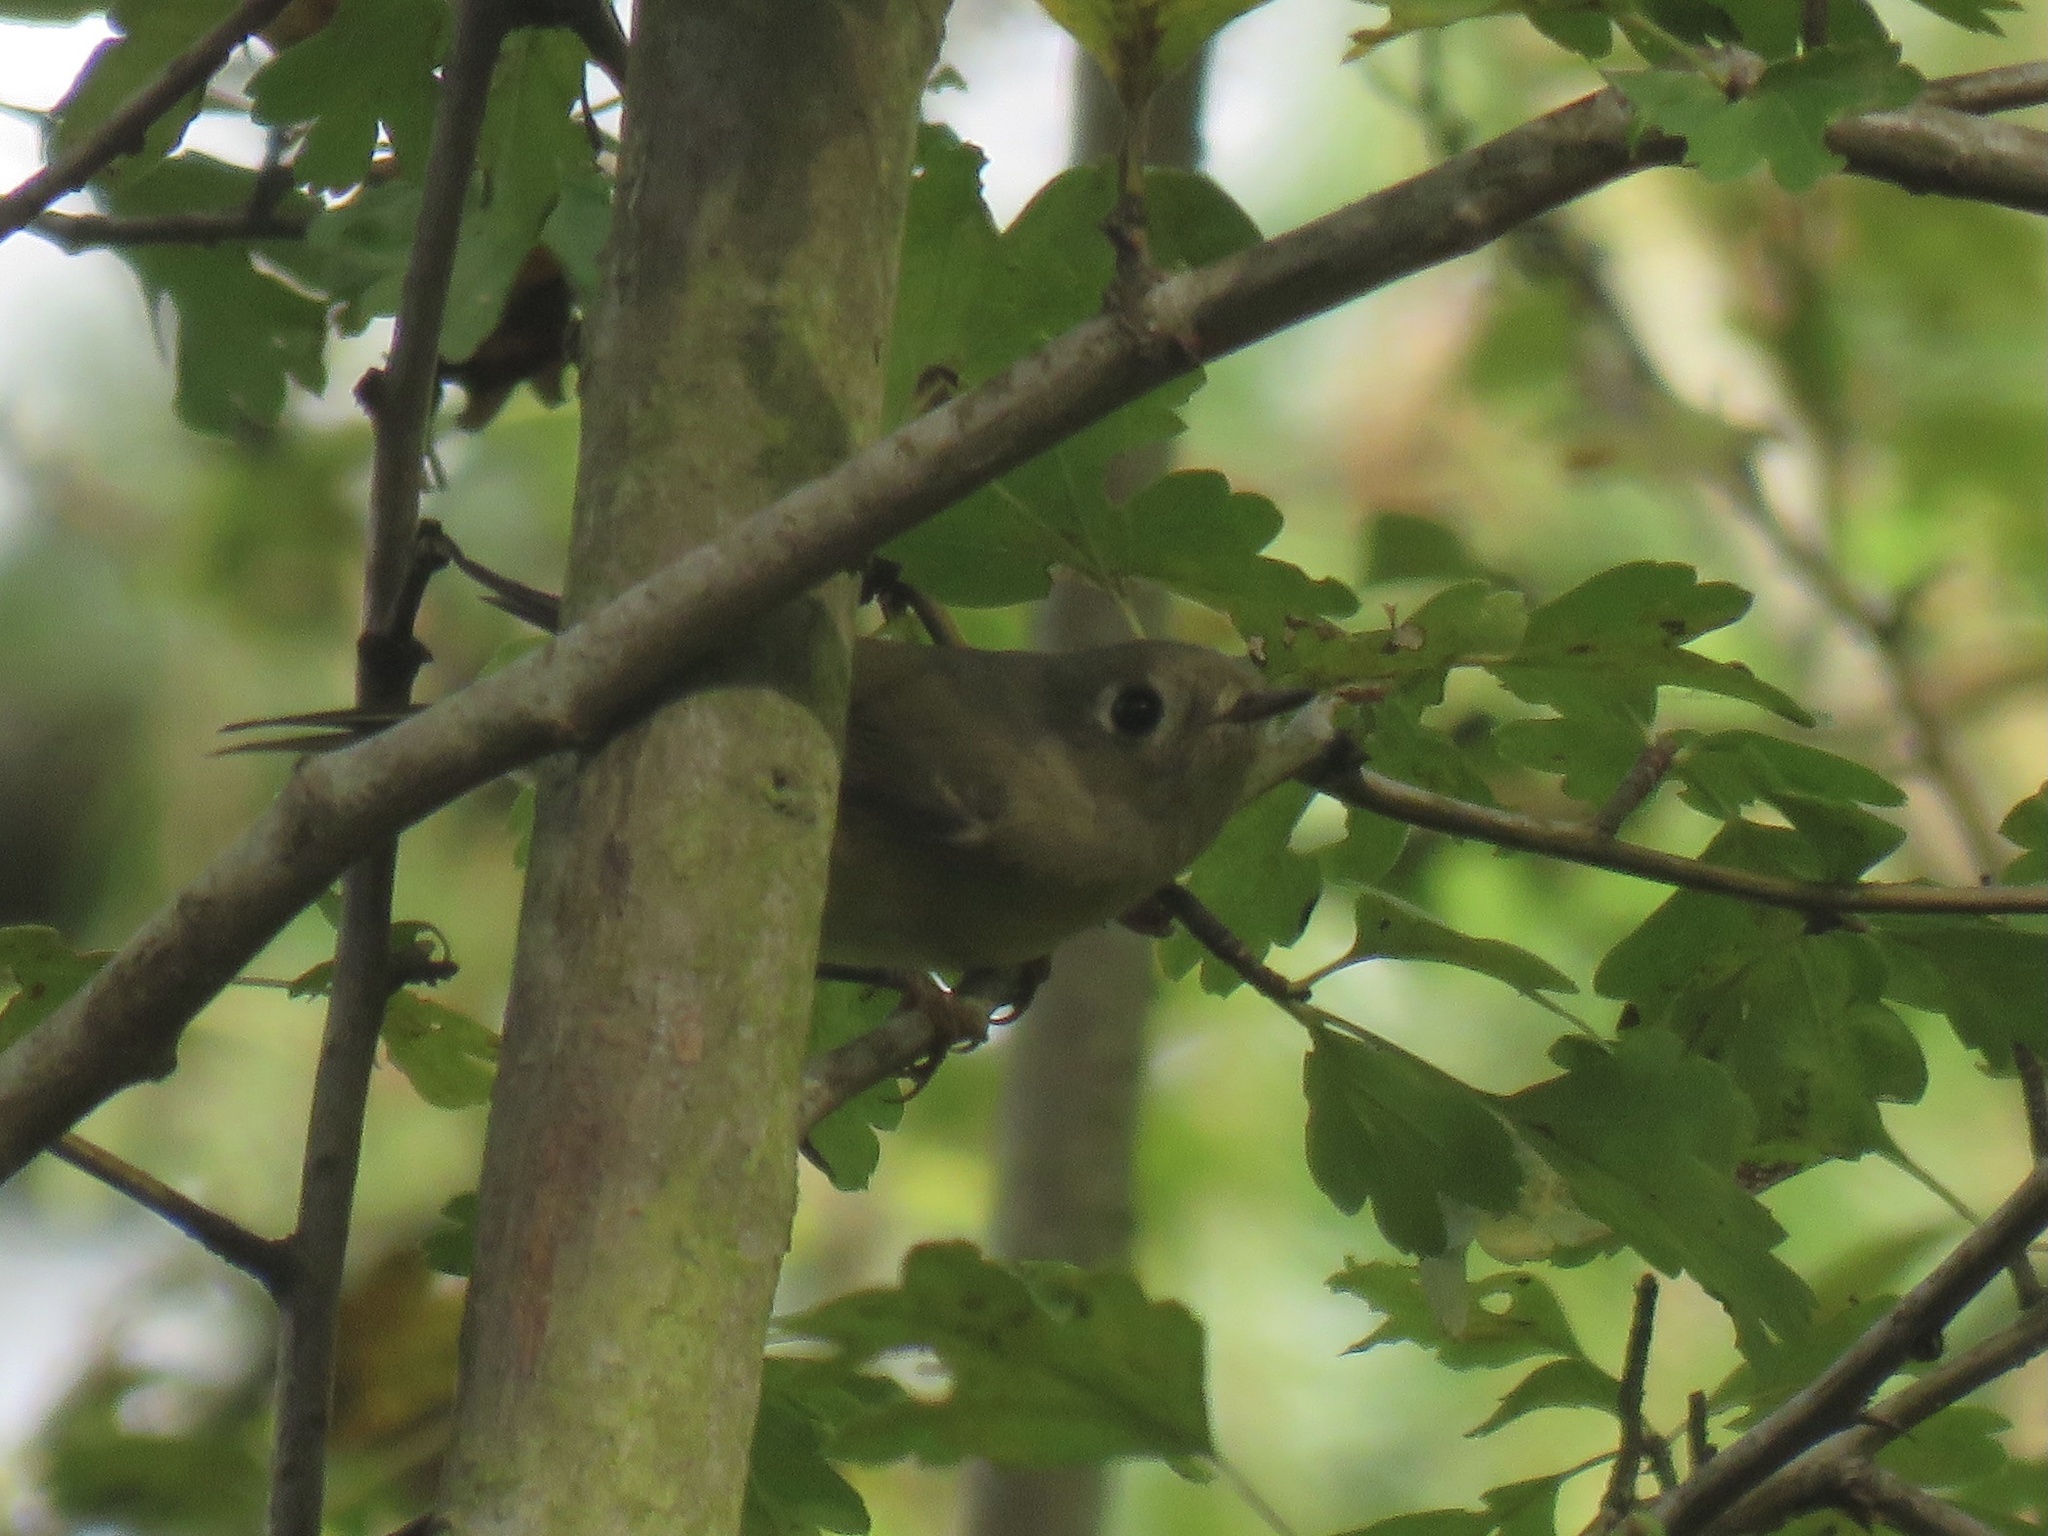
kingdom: Animalia
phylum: Chordata
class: Aves
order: Passeriformes
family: Regulidae
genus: Regulus
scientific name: Regulus calendula
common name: Ruby-crowned kinglet
